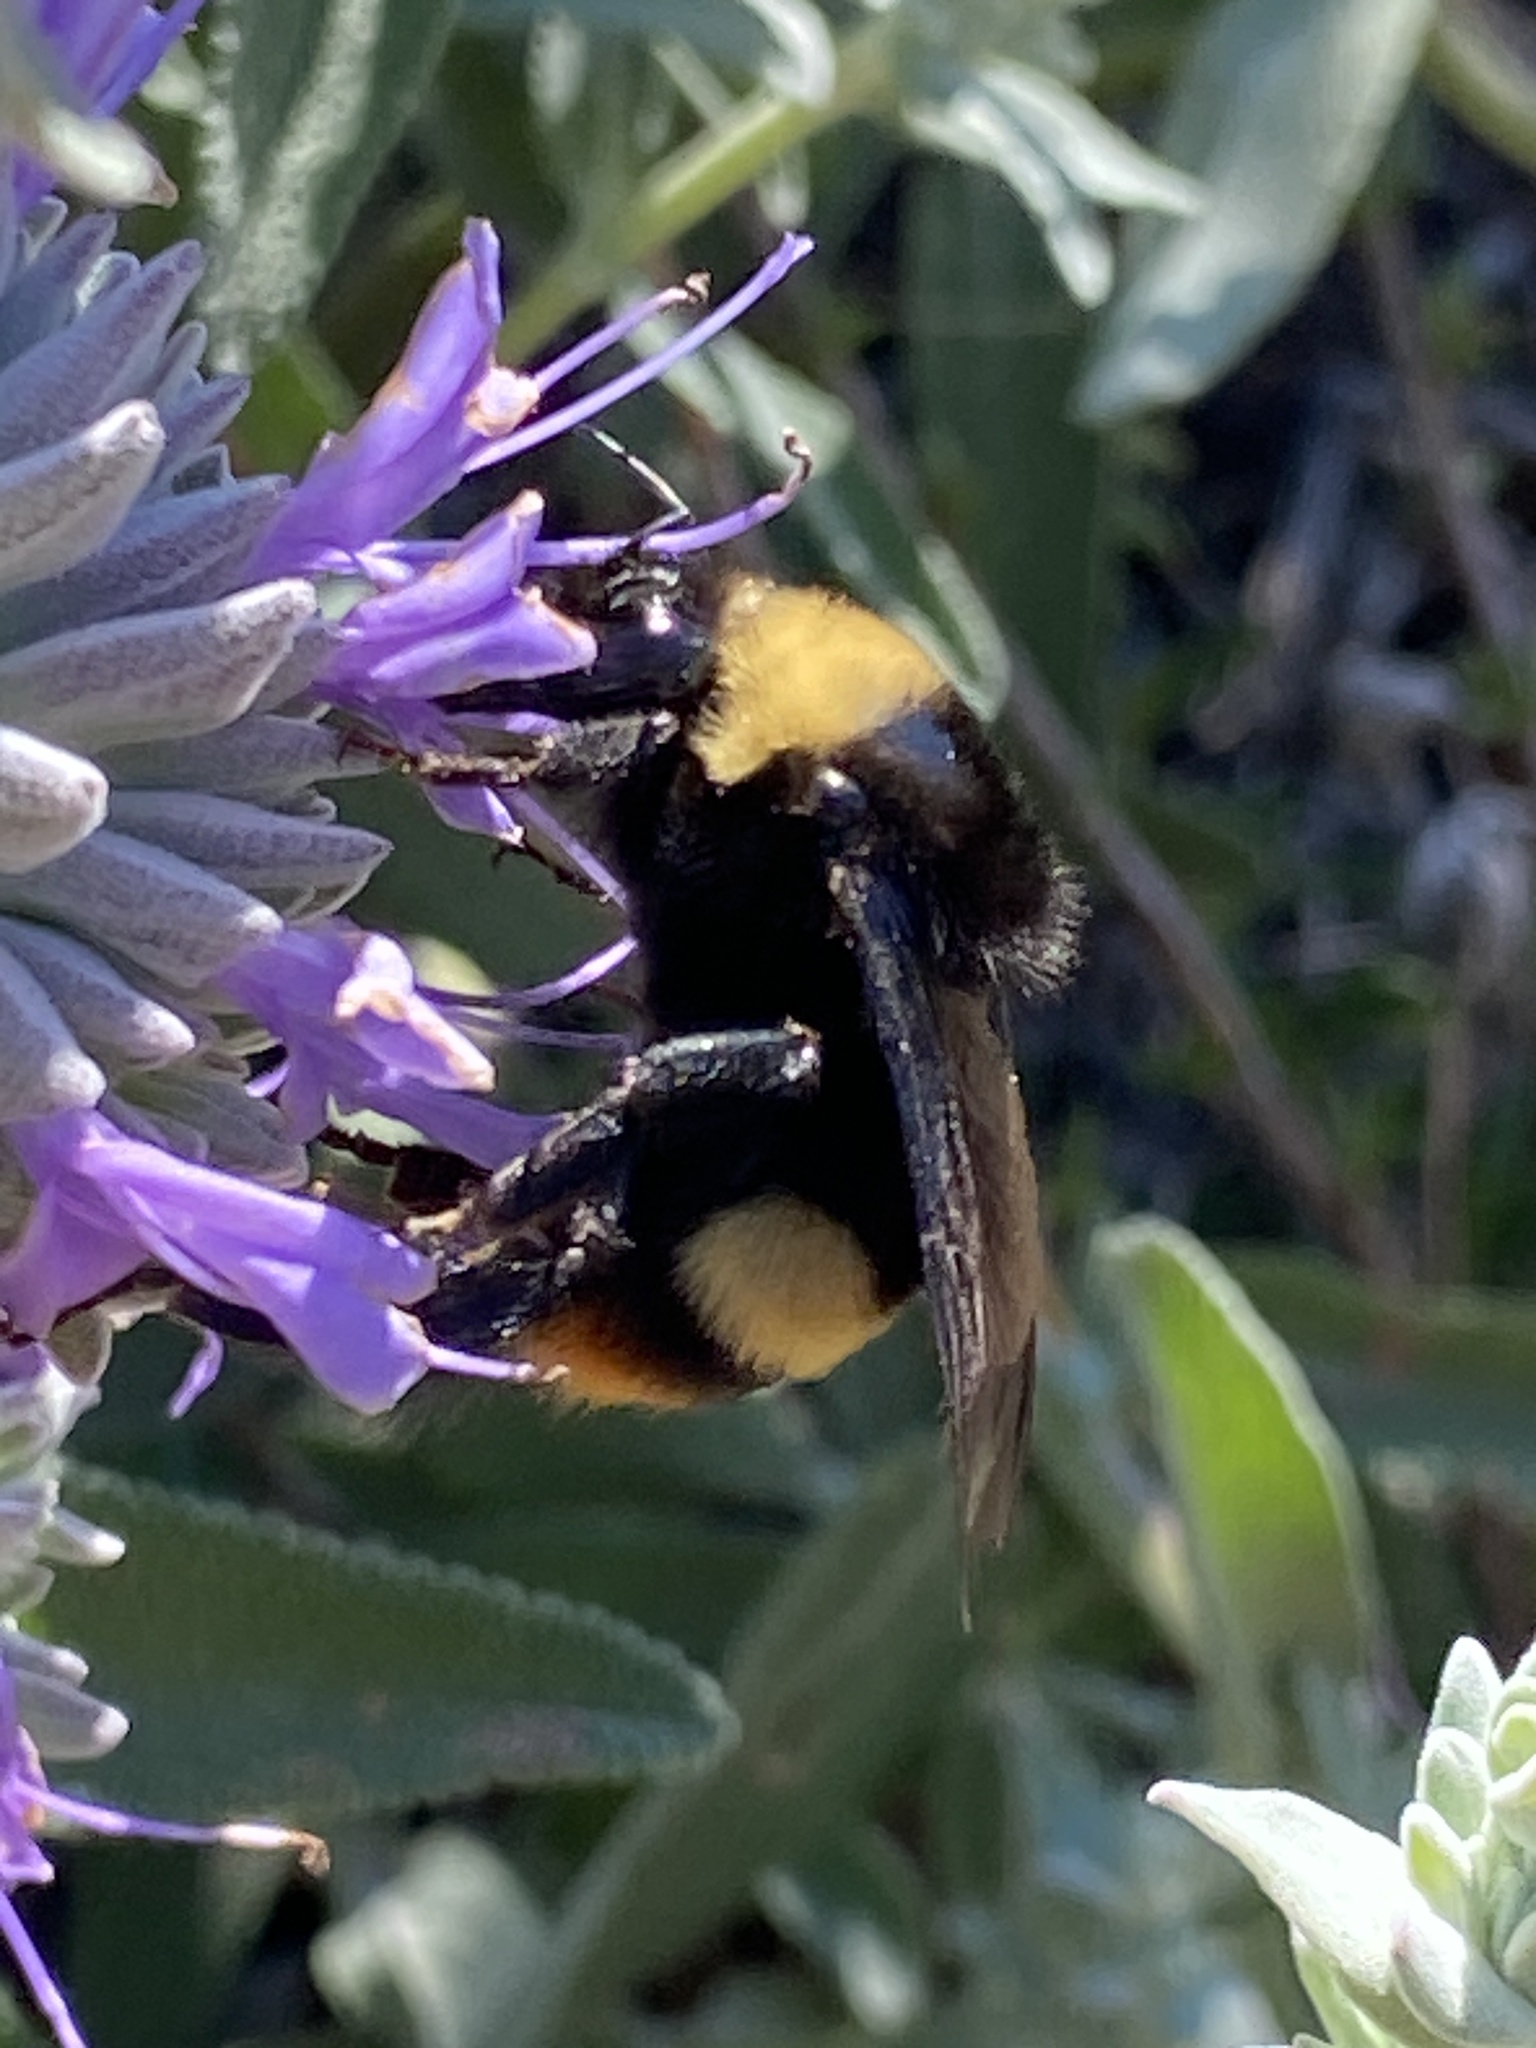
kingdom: Animalia
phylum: Arthropoda
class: Insecta
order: Hymenoptera
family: Apidae
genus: Bombus
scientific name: Bombus crotchii
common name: Crotch bumble bee
